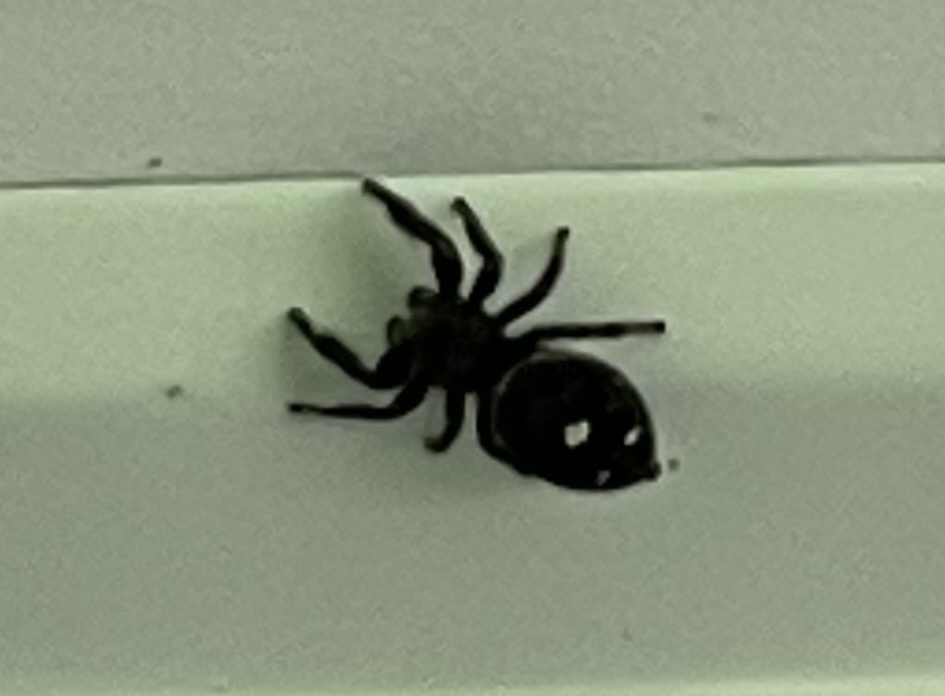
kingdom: Animalia
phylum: Arthropoda
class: Arachnida
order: Araneae
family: Salticidae
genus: Phidippus
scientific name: Phidippus audax
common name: Bold jumper
